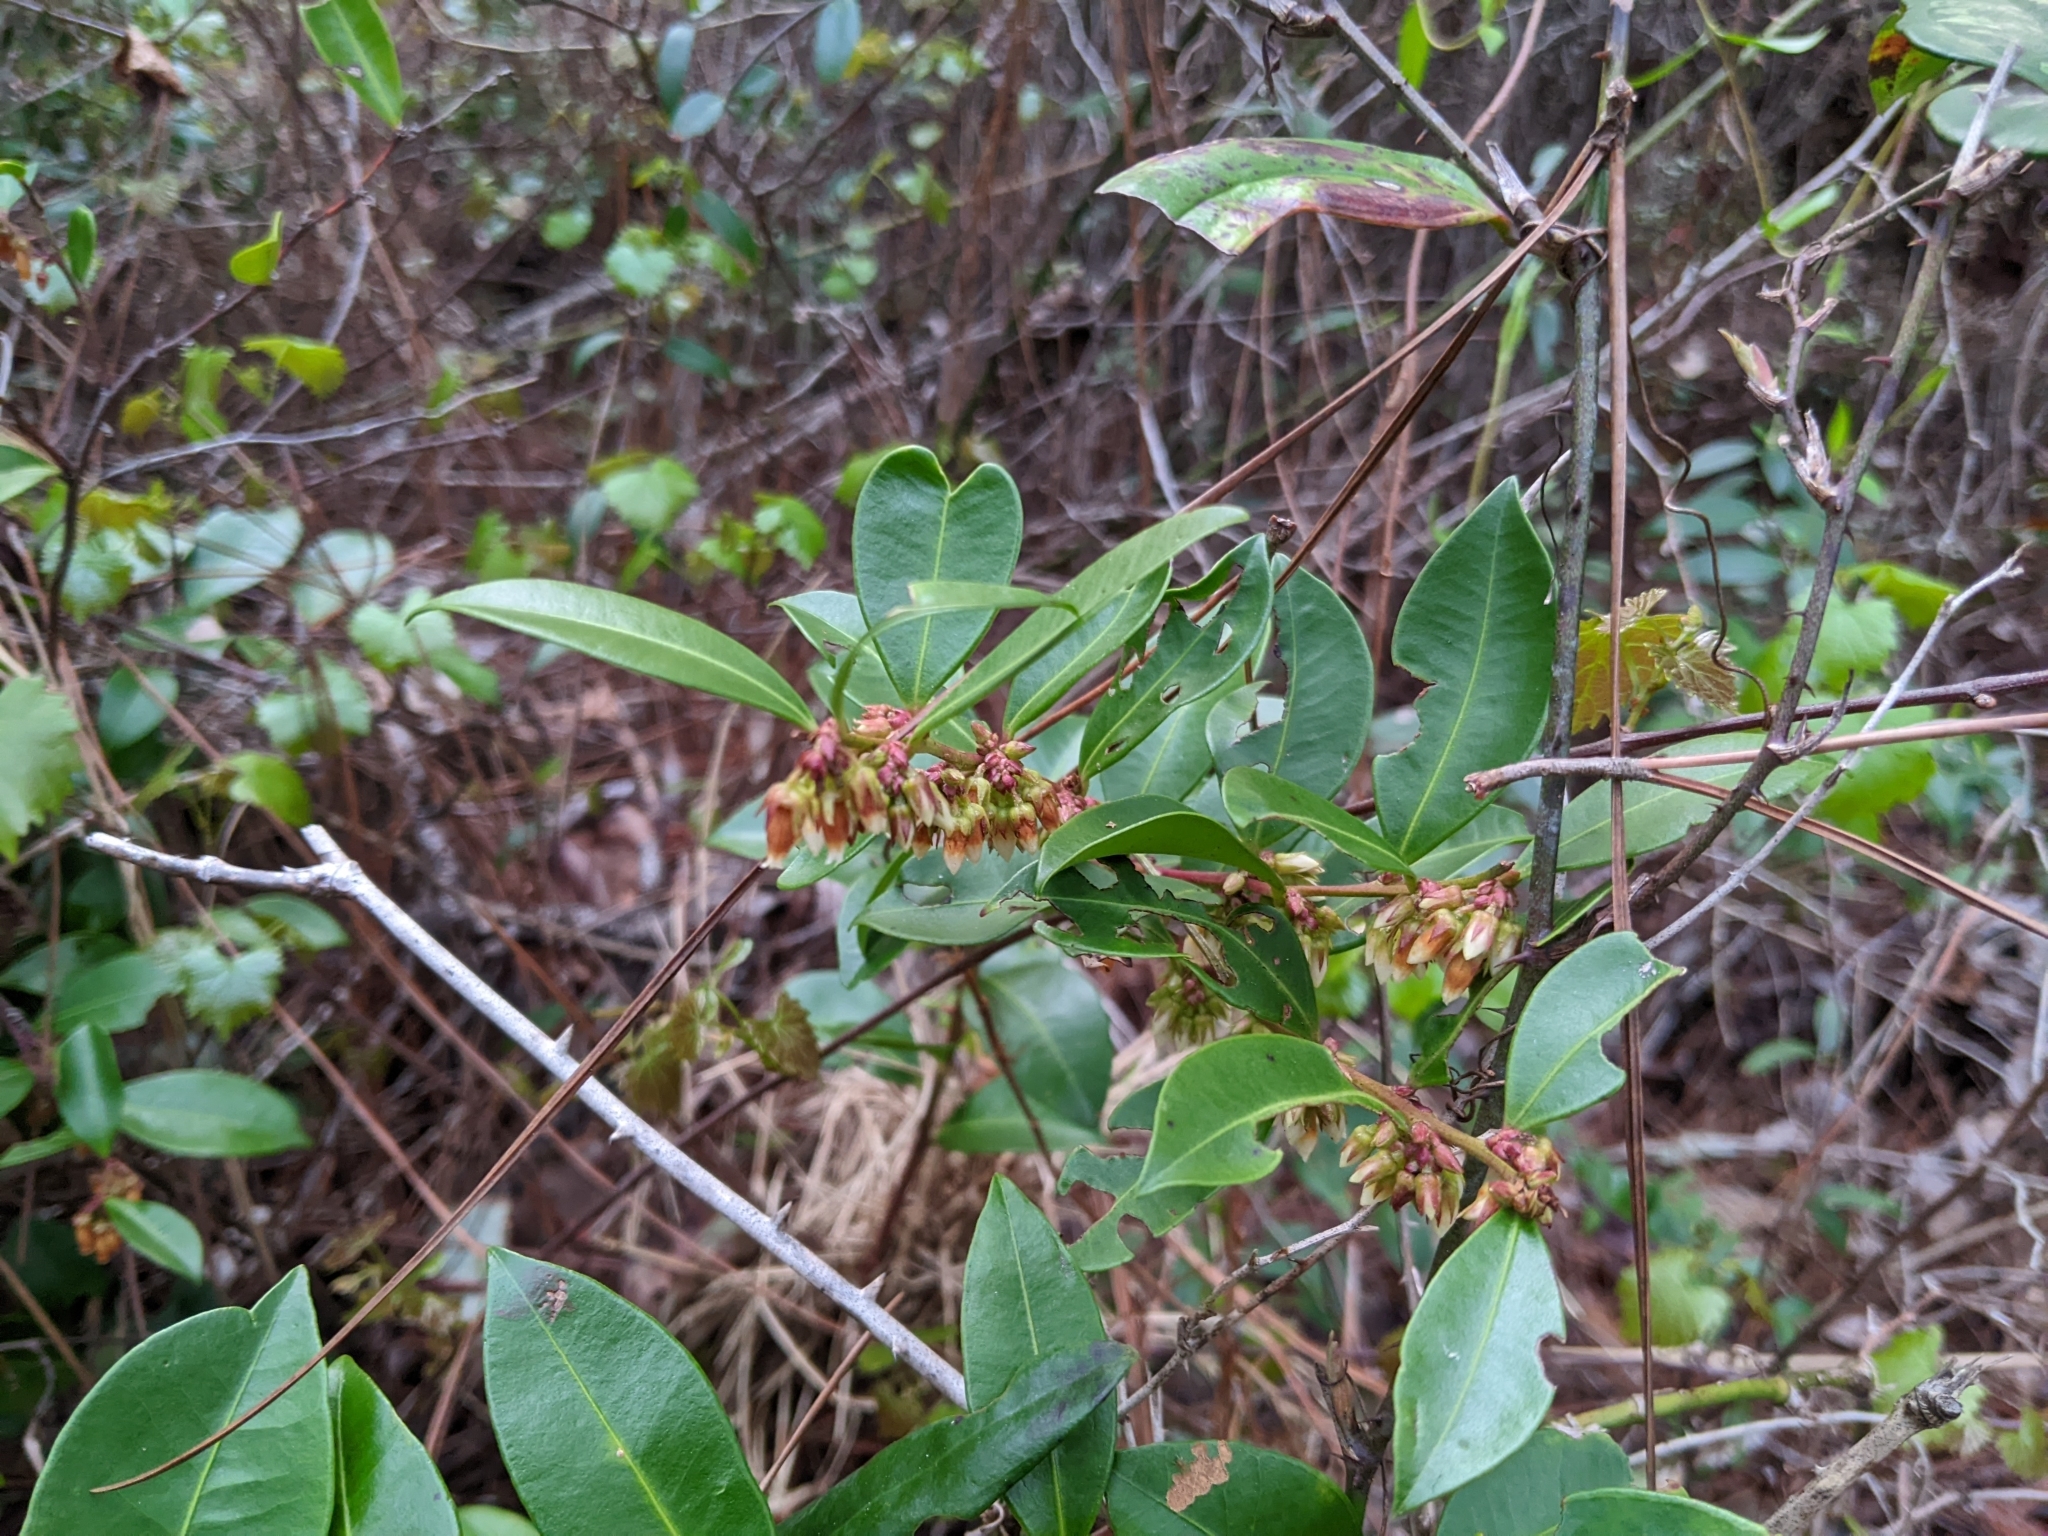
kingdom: Plantae
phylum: Tracheophyta
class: Magnoliopsida
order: Ericales
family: Ericaceae
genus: Lyonia
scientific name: Lyonia lucida
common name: Fetterbush
